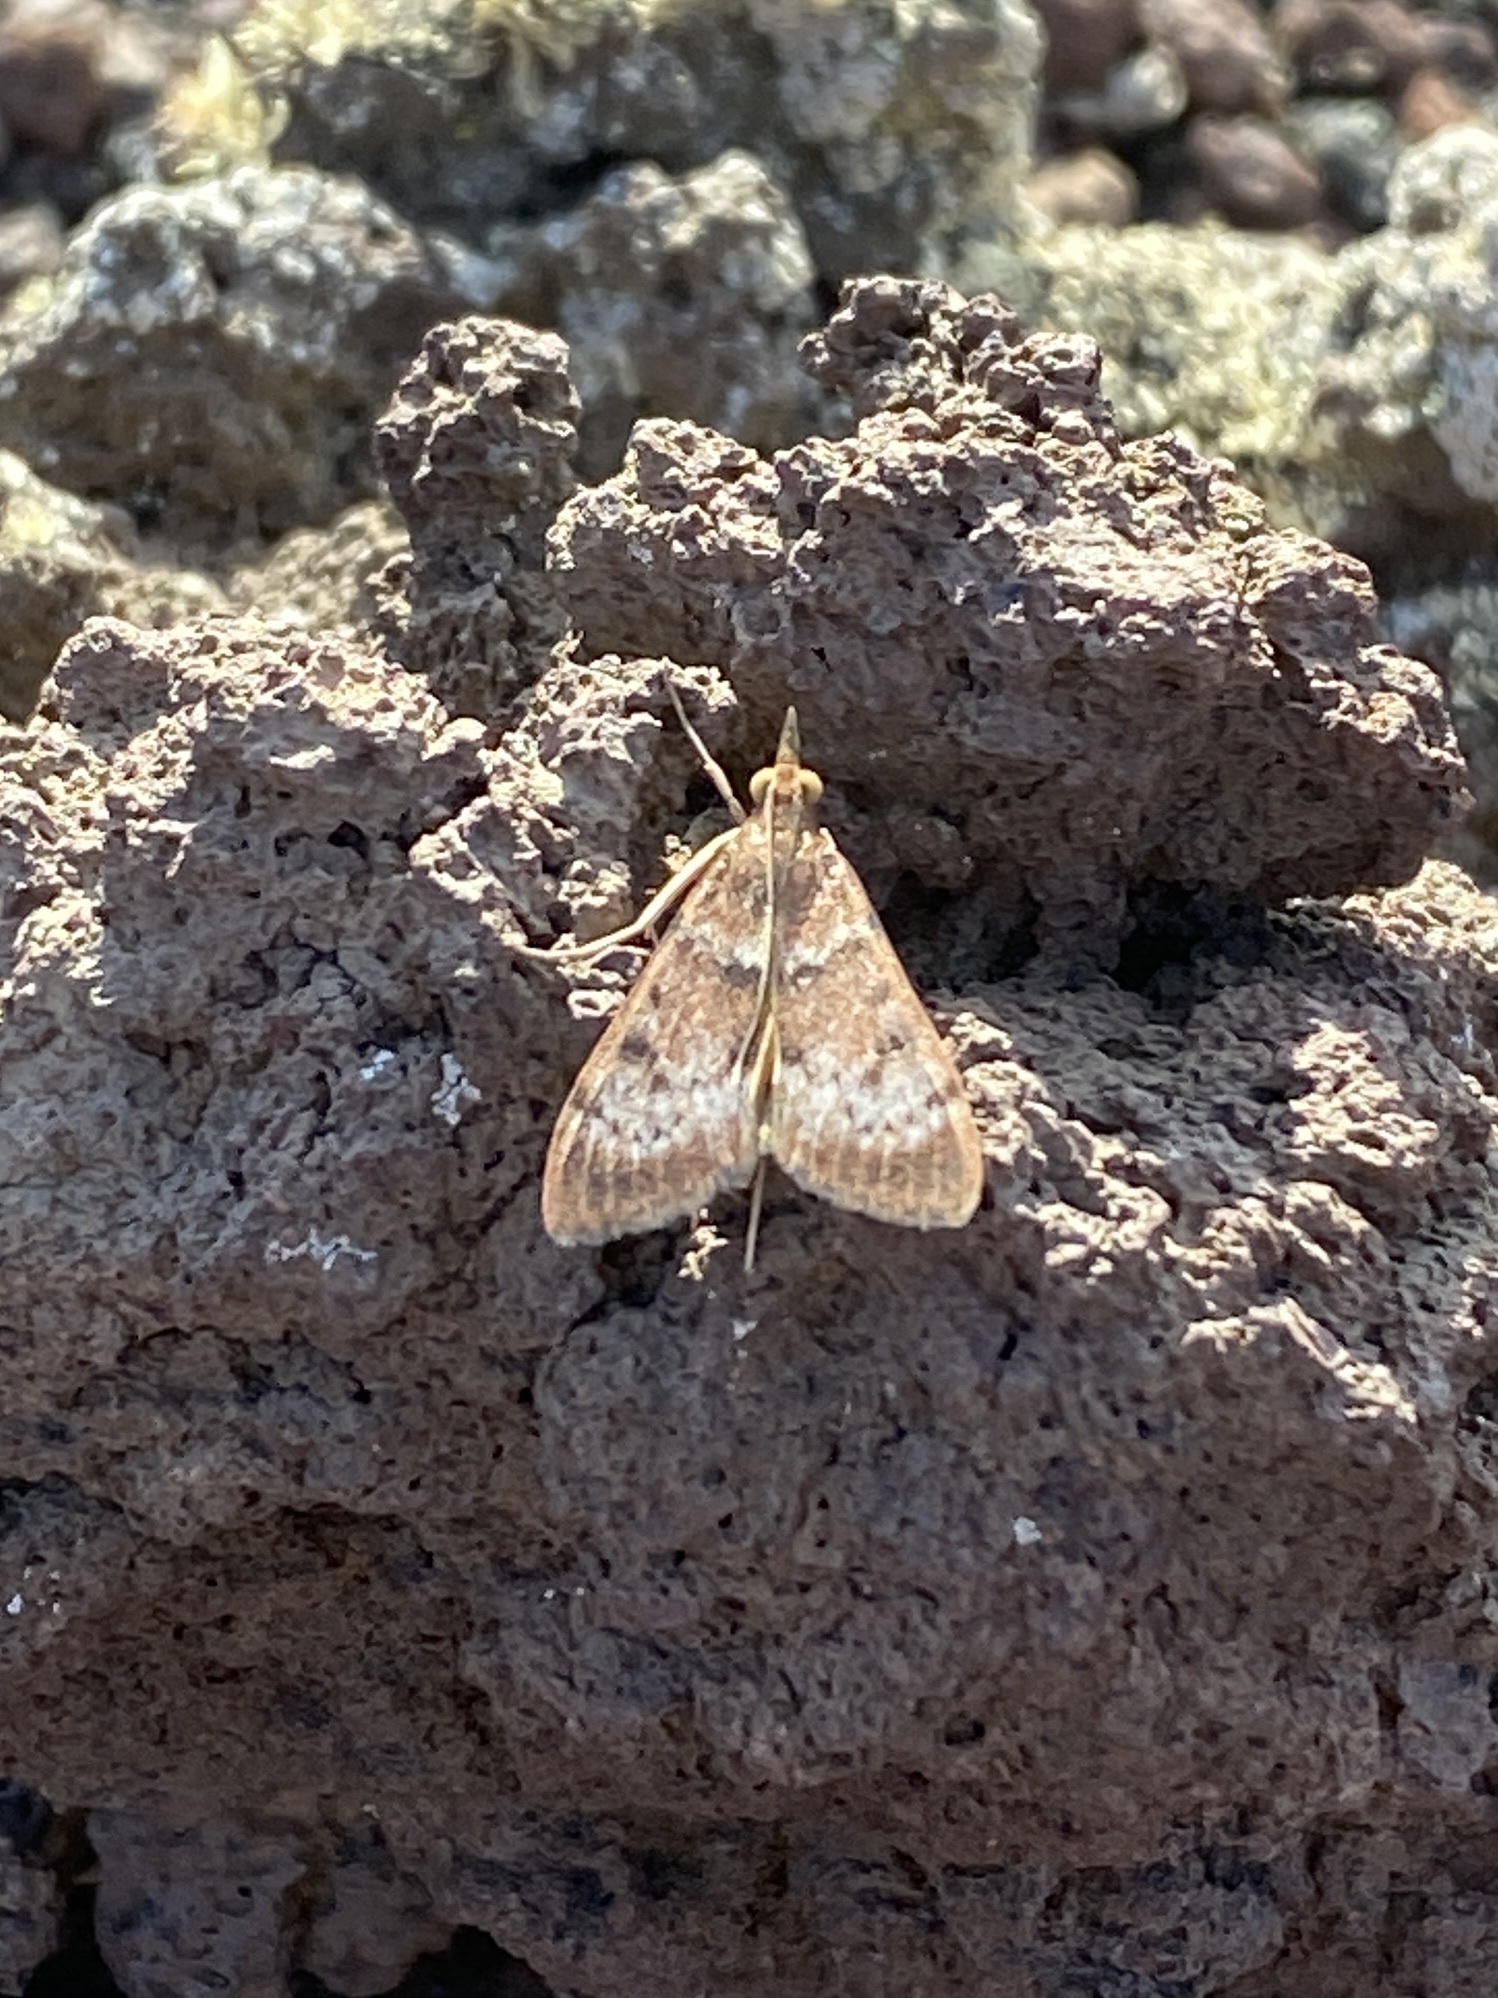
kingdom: Animalia
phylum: Arthropoda
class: Insecta
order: Lepidoptera
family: Crambidae
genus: Uresiphita
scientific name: Uresiphita gilvata
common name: Yellow-underwing pearl
